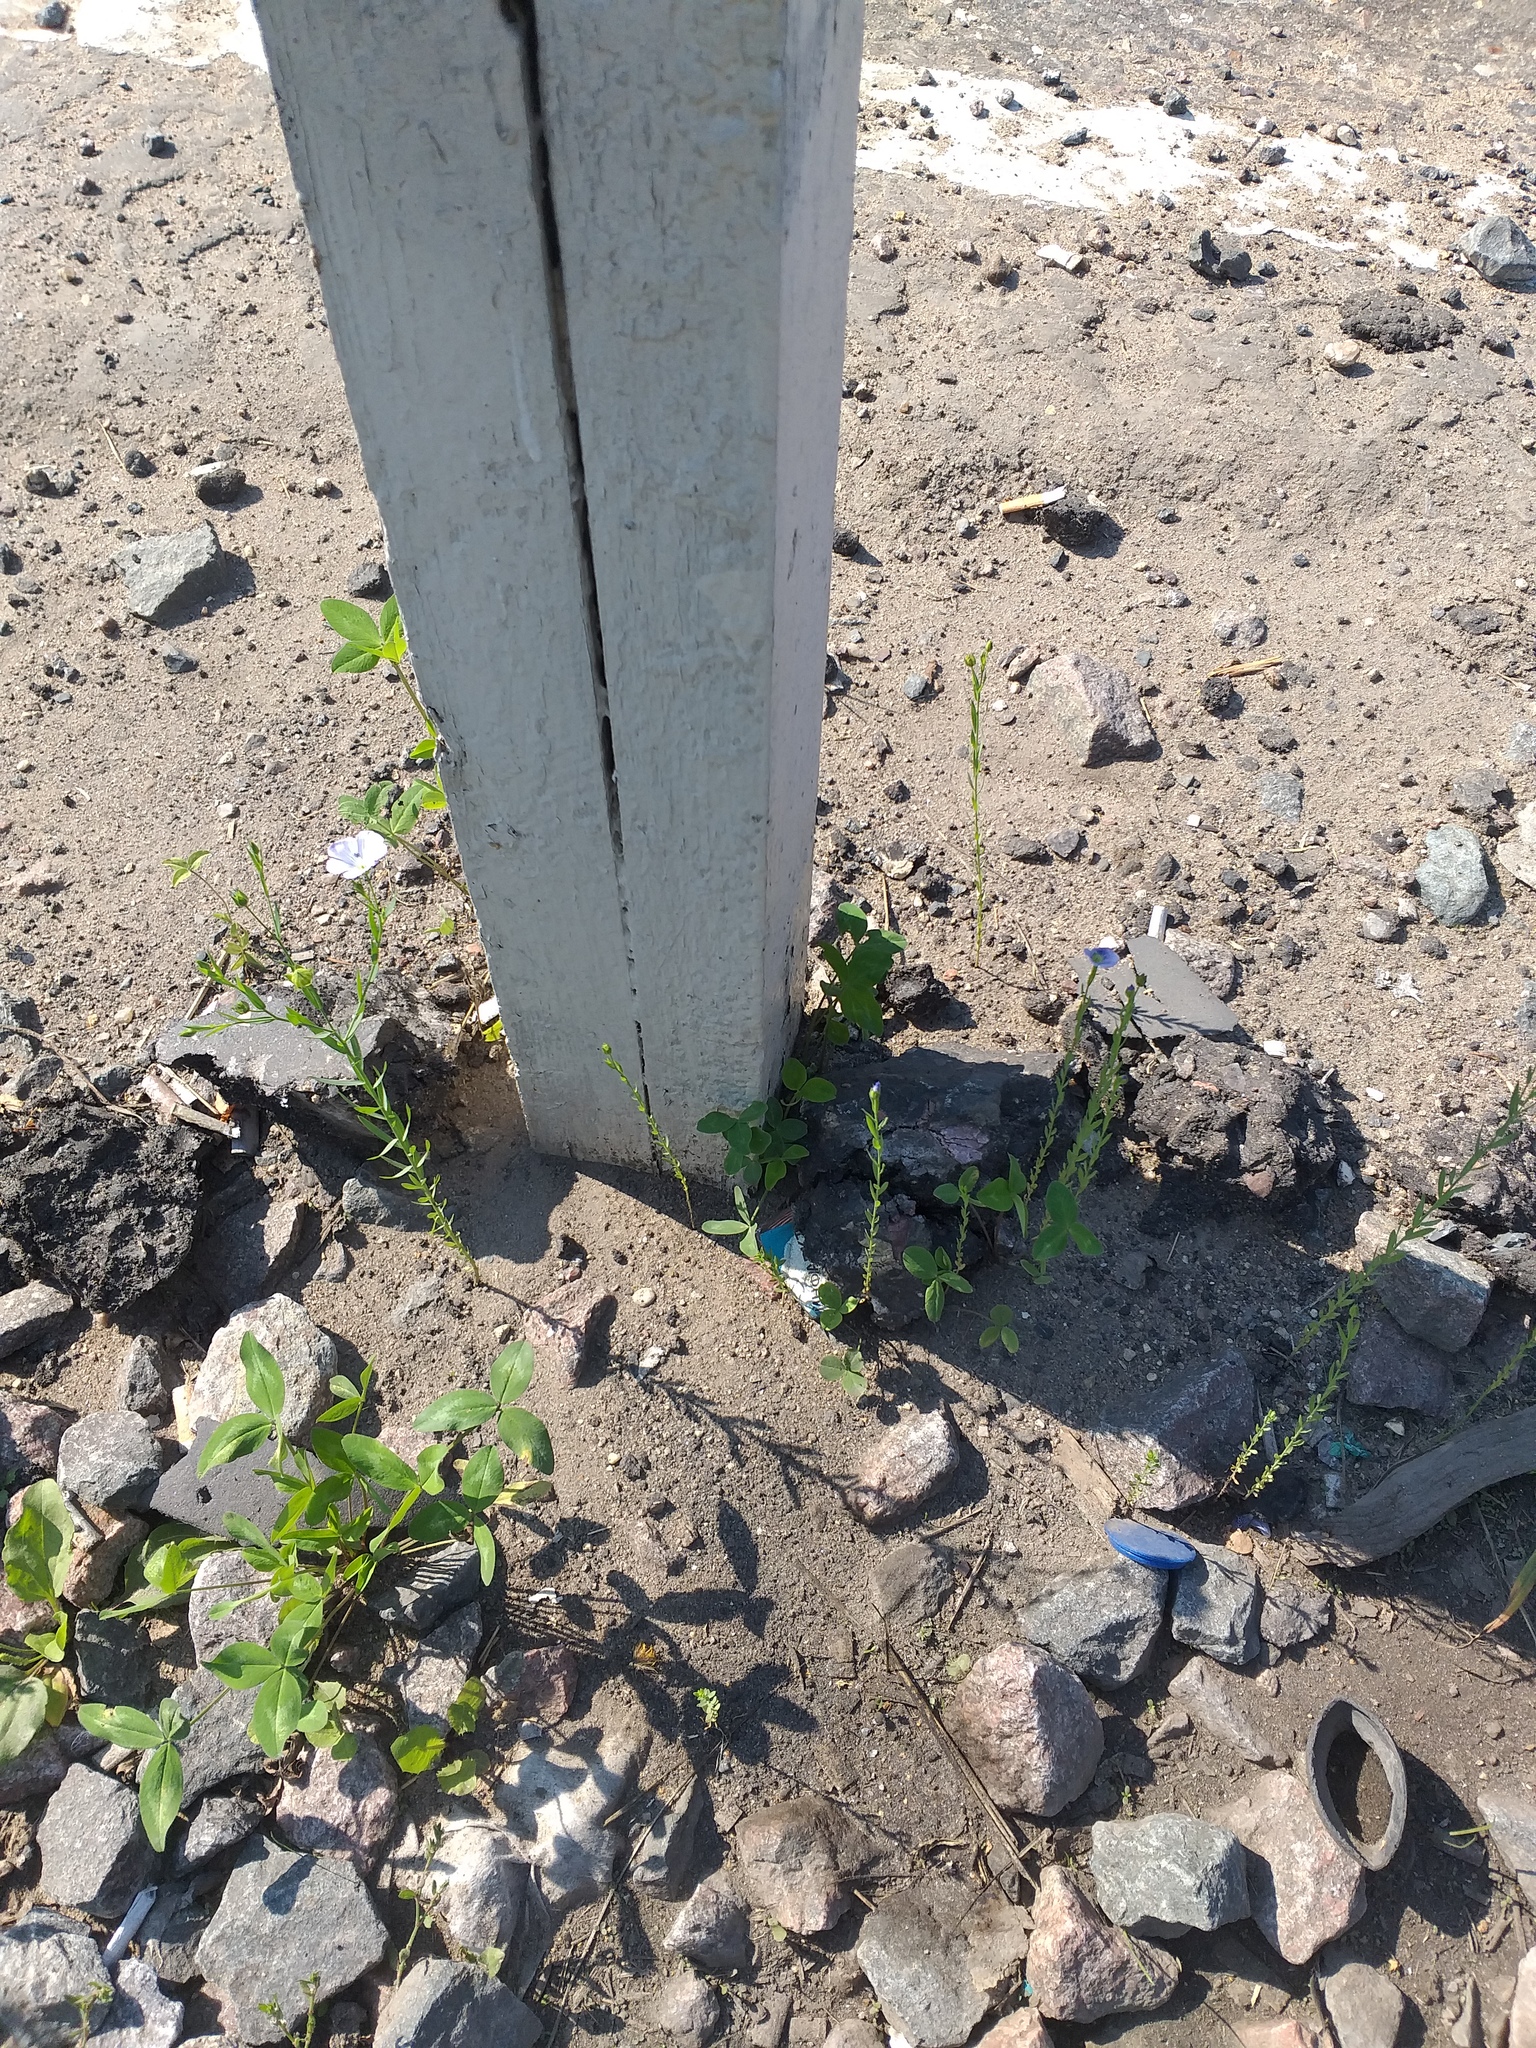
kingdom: Plantae
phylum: Tracheophyta
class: Magnoliopsida
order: Malpighiales
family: Linaceae
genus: Linum
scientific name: Linum usitatissimum
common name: Flax
